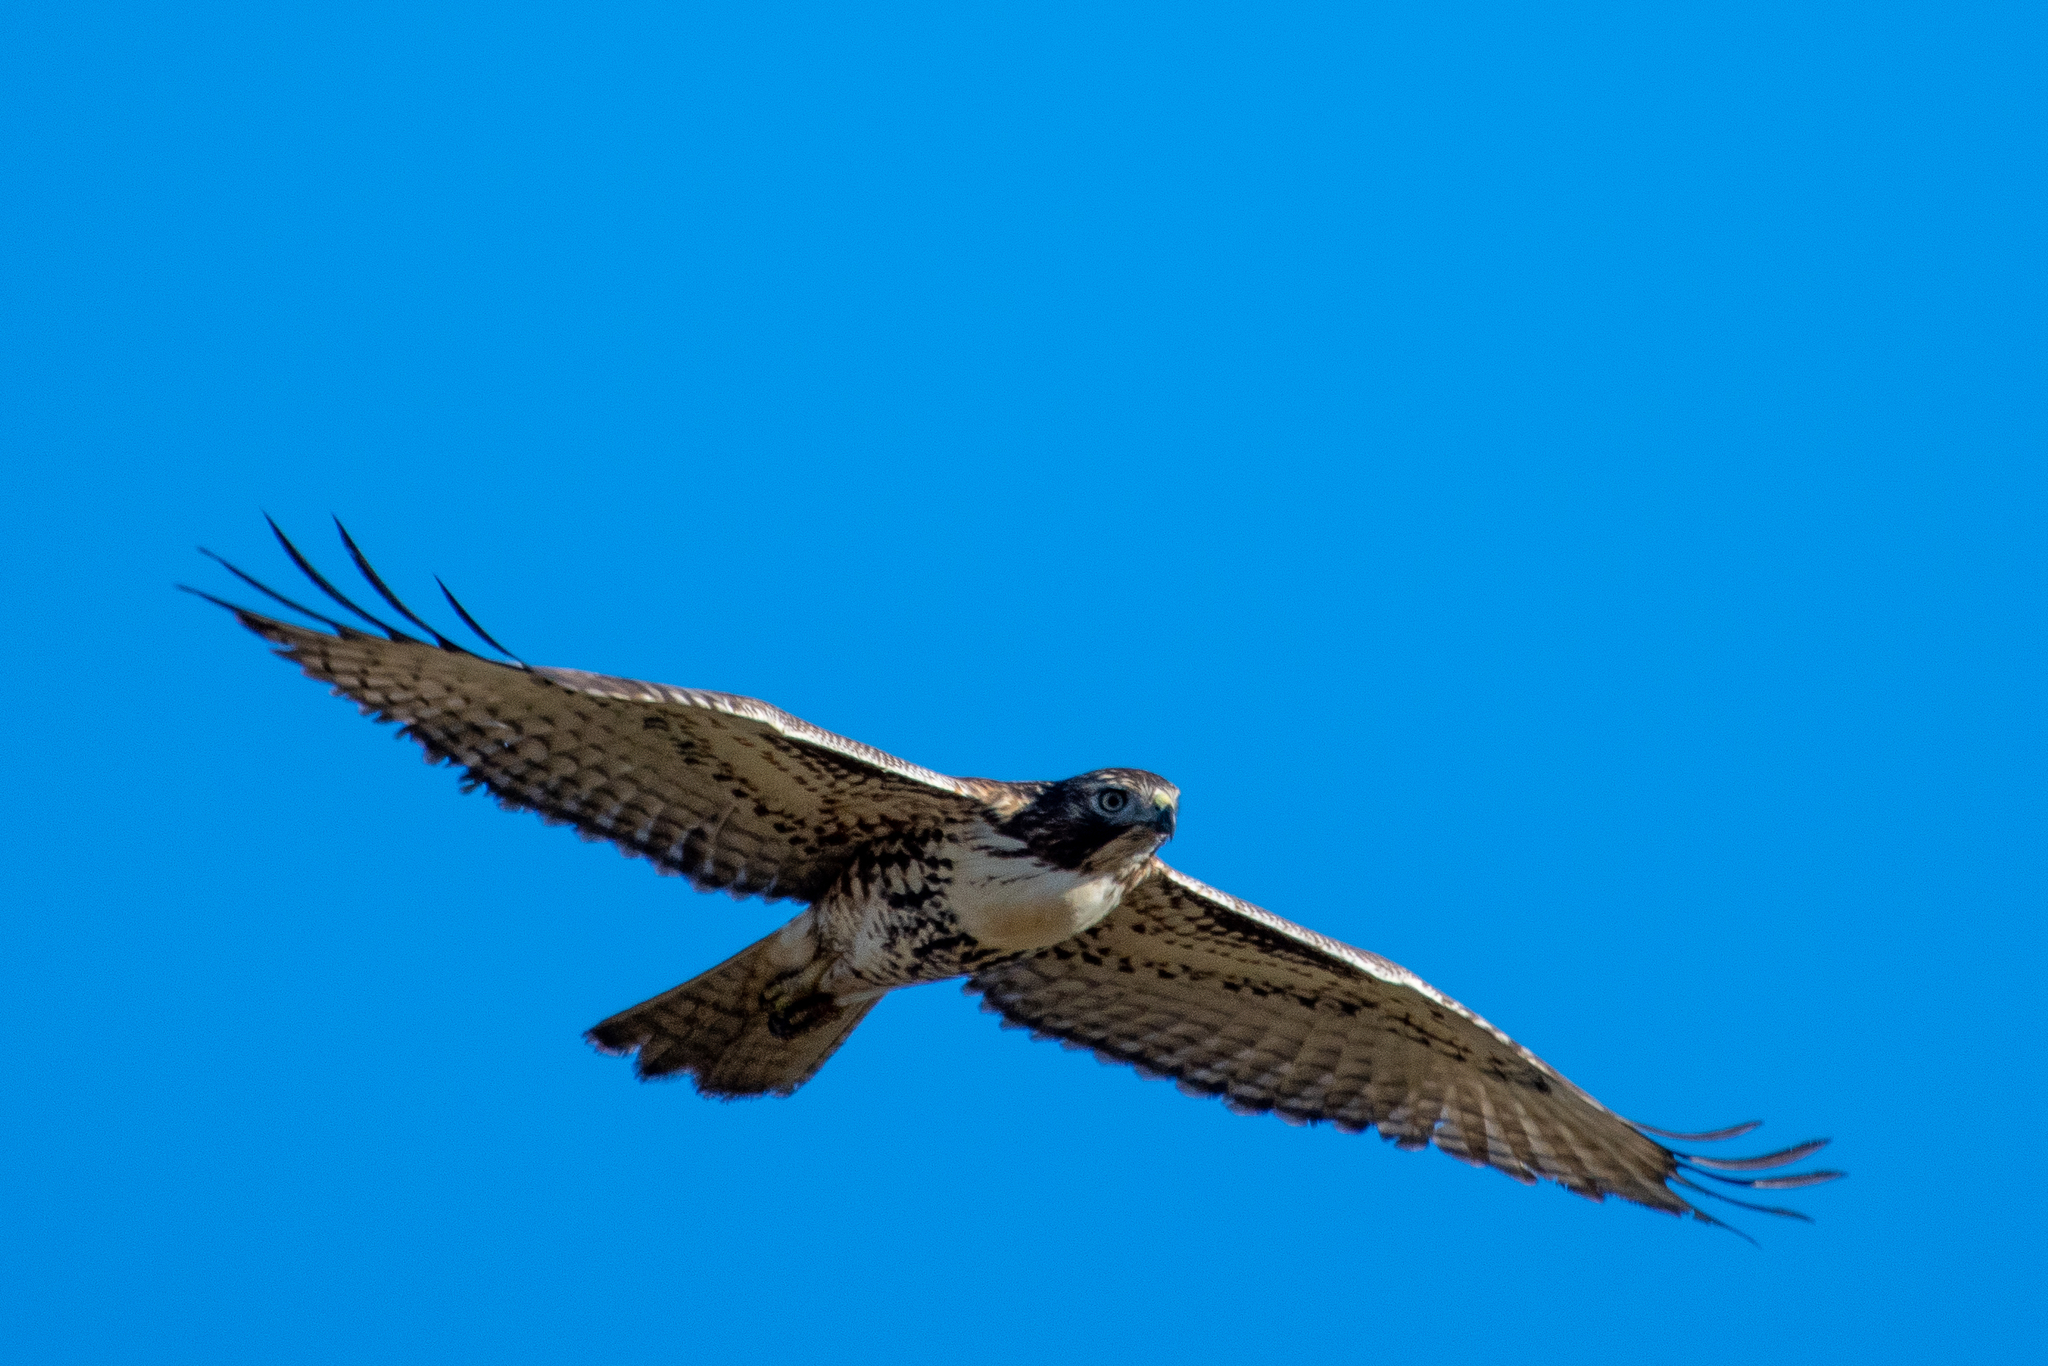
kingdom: Animalia
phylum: Chordata
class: Aves
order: Accipitriformes
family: Accipitridae
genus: Buteo
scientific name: Buteo jamaicensis
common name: Red-tailed hawk
